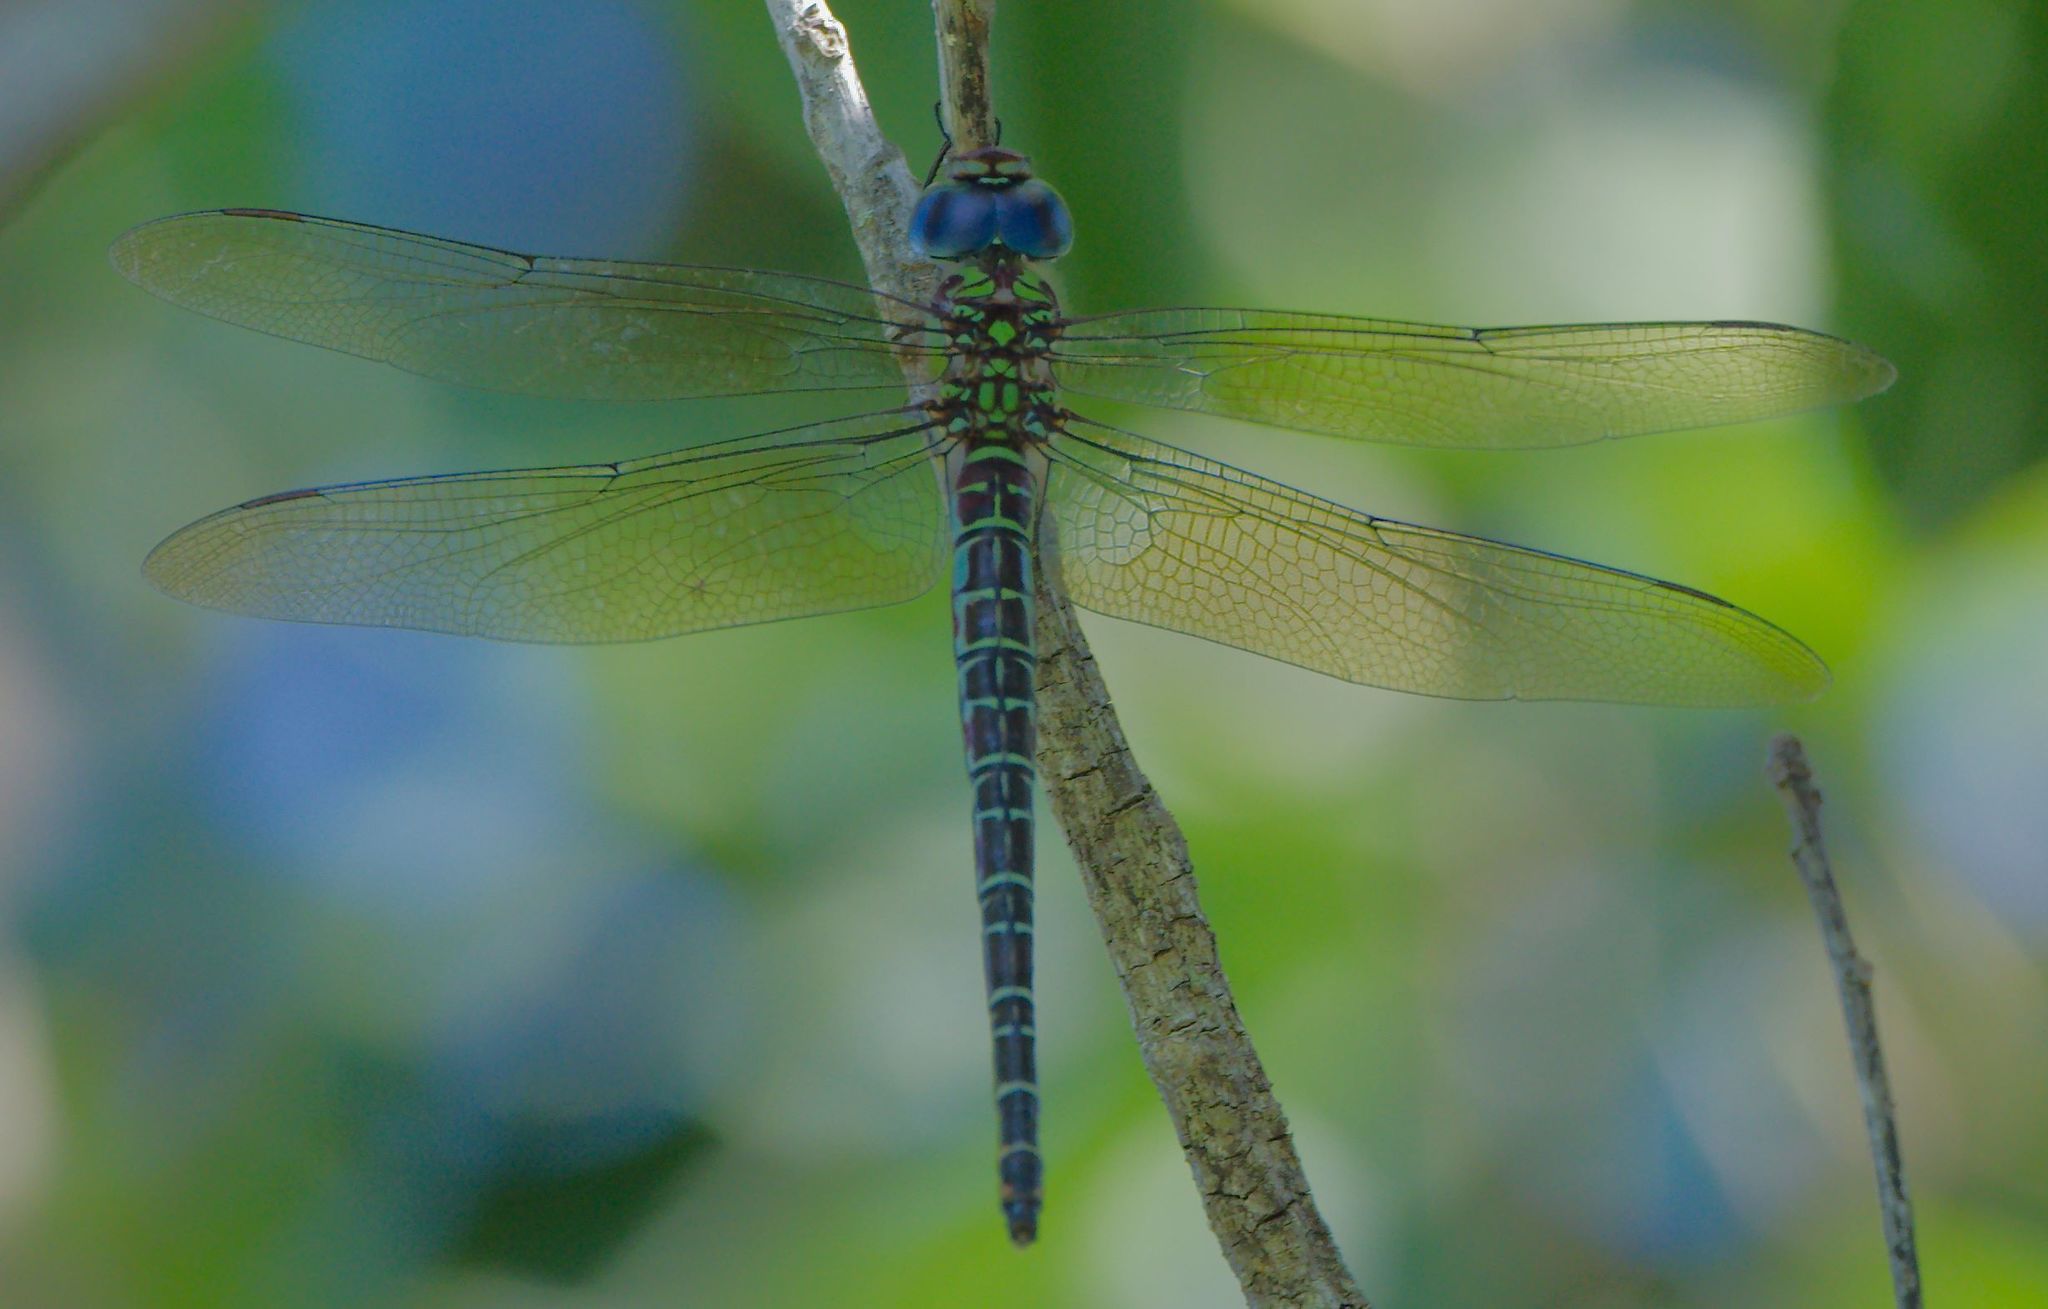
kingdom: Animalia
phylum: Arthropoda
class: Insecta
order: Odonata
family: Aeshnidae
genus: Coryphaeschna
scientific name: Coryphaeschna ingens
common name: Regal darner
